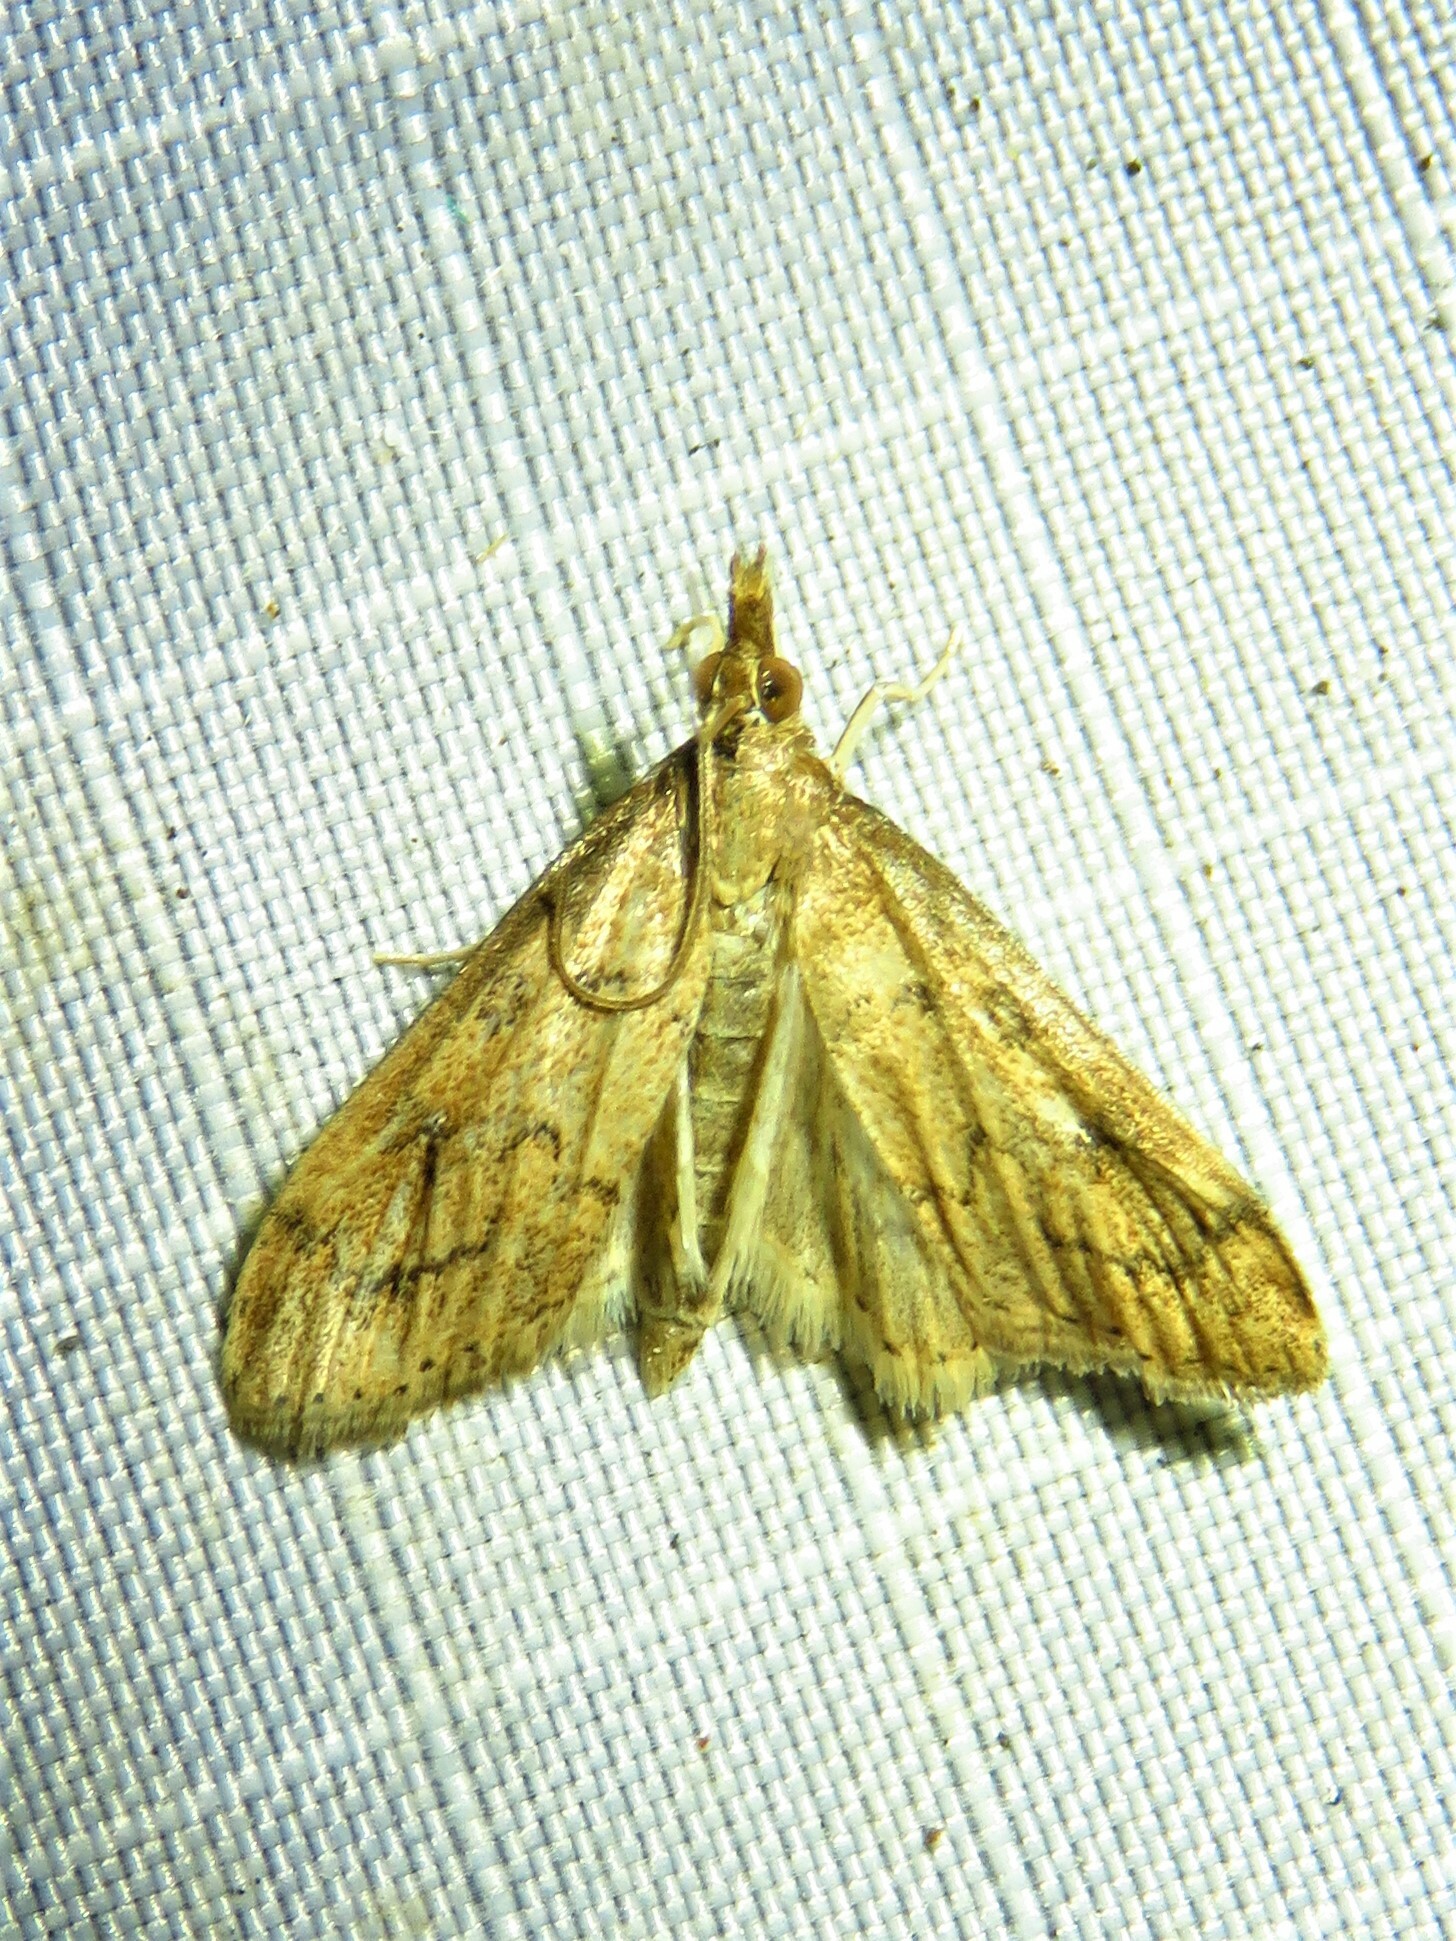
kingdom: Animalia
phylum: Arthropoda
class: Insecta
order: Lepidoptera
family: Crambidae
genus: Udea
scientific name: Udea rubigalis
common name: Celery leaftier moth
